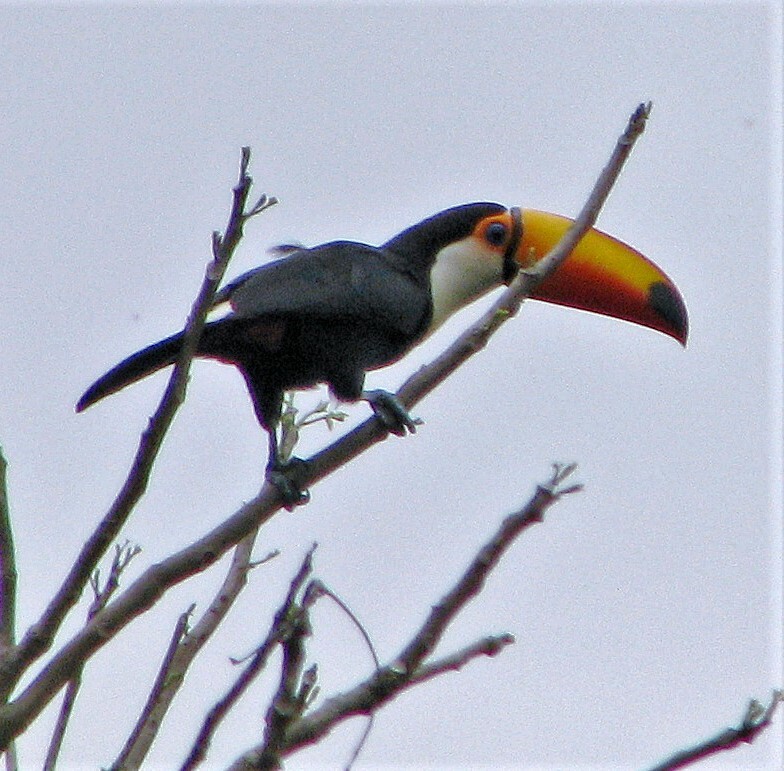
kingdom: Animalia
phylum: Chordata
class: Aves
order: Piciformes
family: Ramphastidae
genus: Ramphastos
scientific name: Ramphastos toco
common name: Toco toucan
